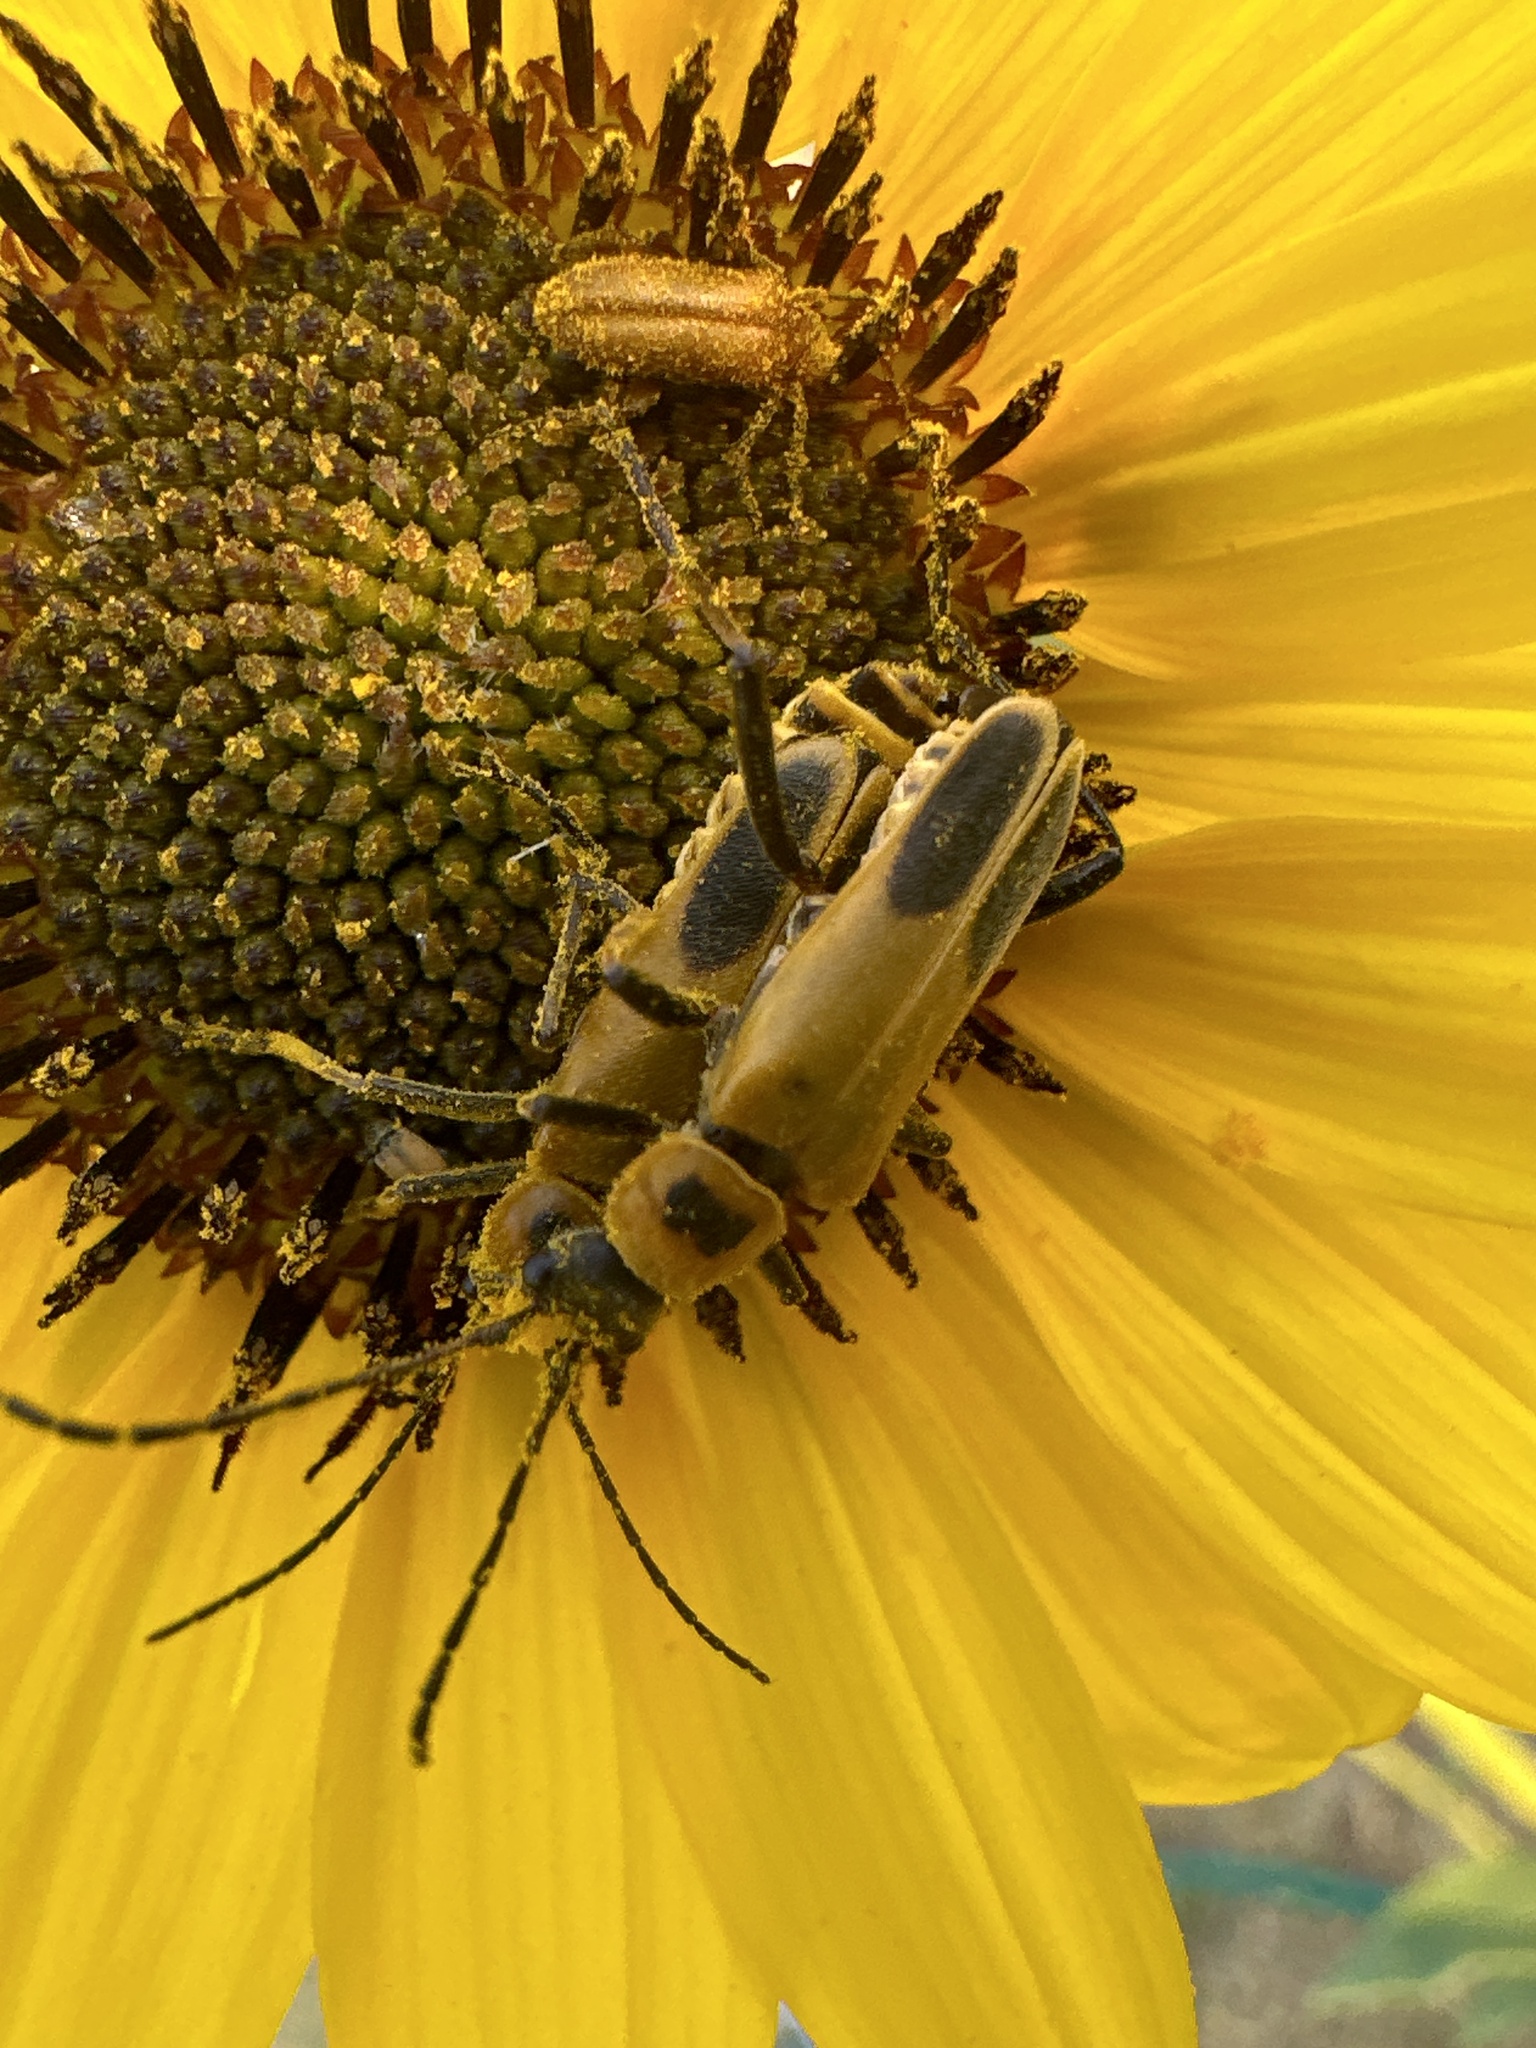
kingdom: Animalia
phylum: Arthropoda
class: Insecta
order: Coleoptera
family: Cantharidae
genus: Chauliognathus
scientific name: Chauliognathus pensylvanicus
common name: Goldenrod soldier beetle
